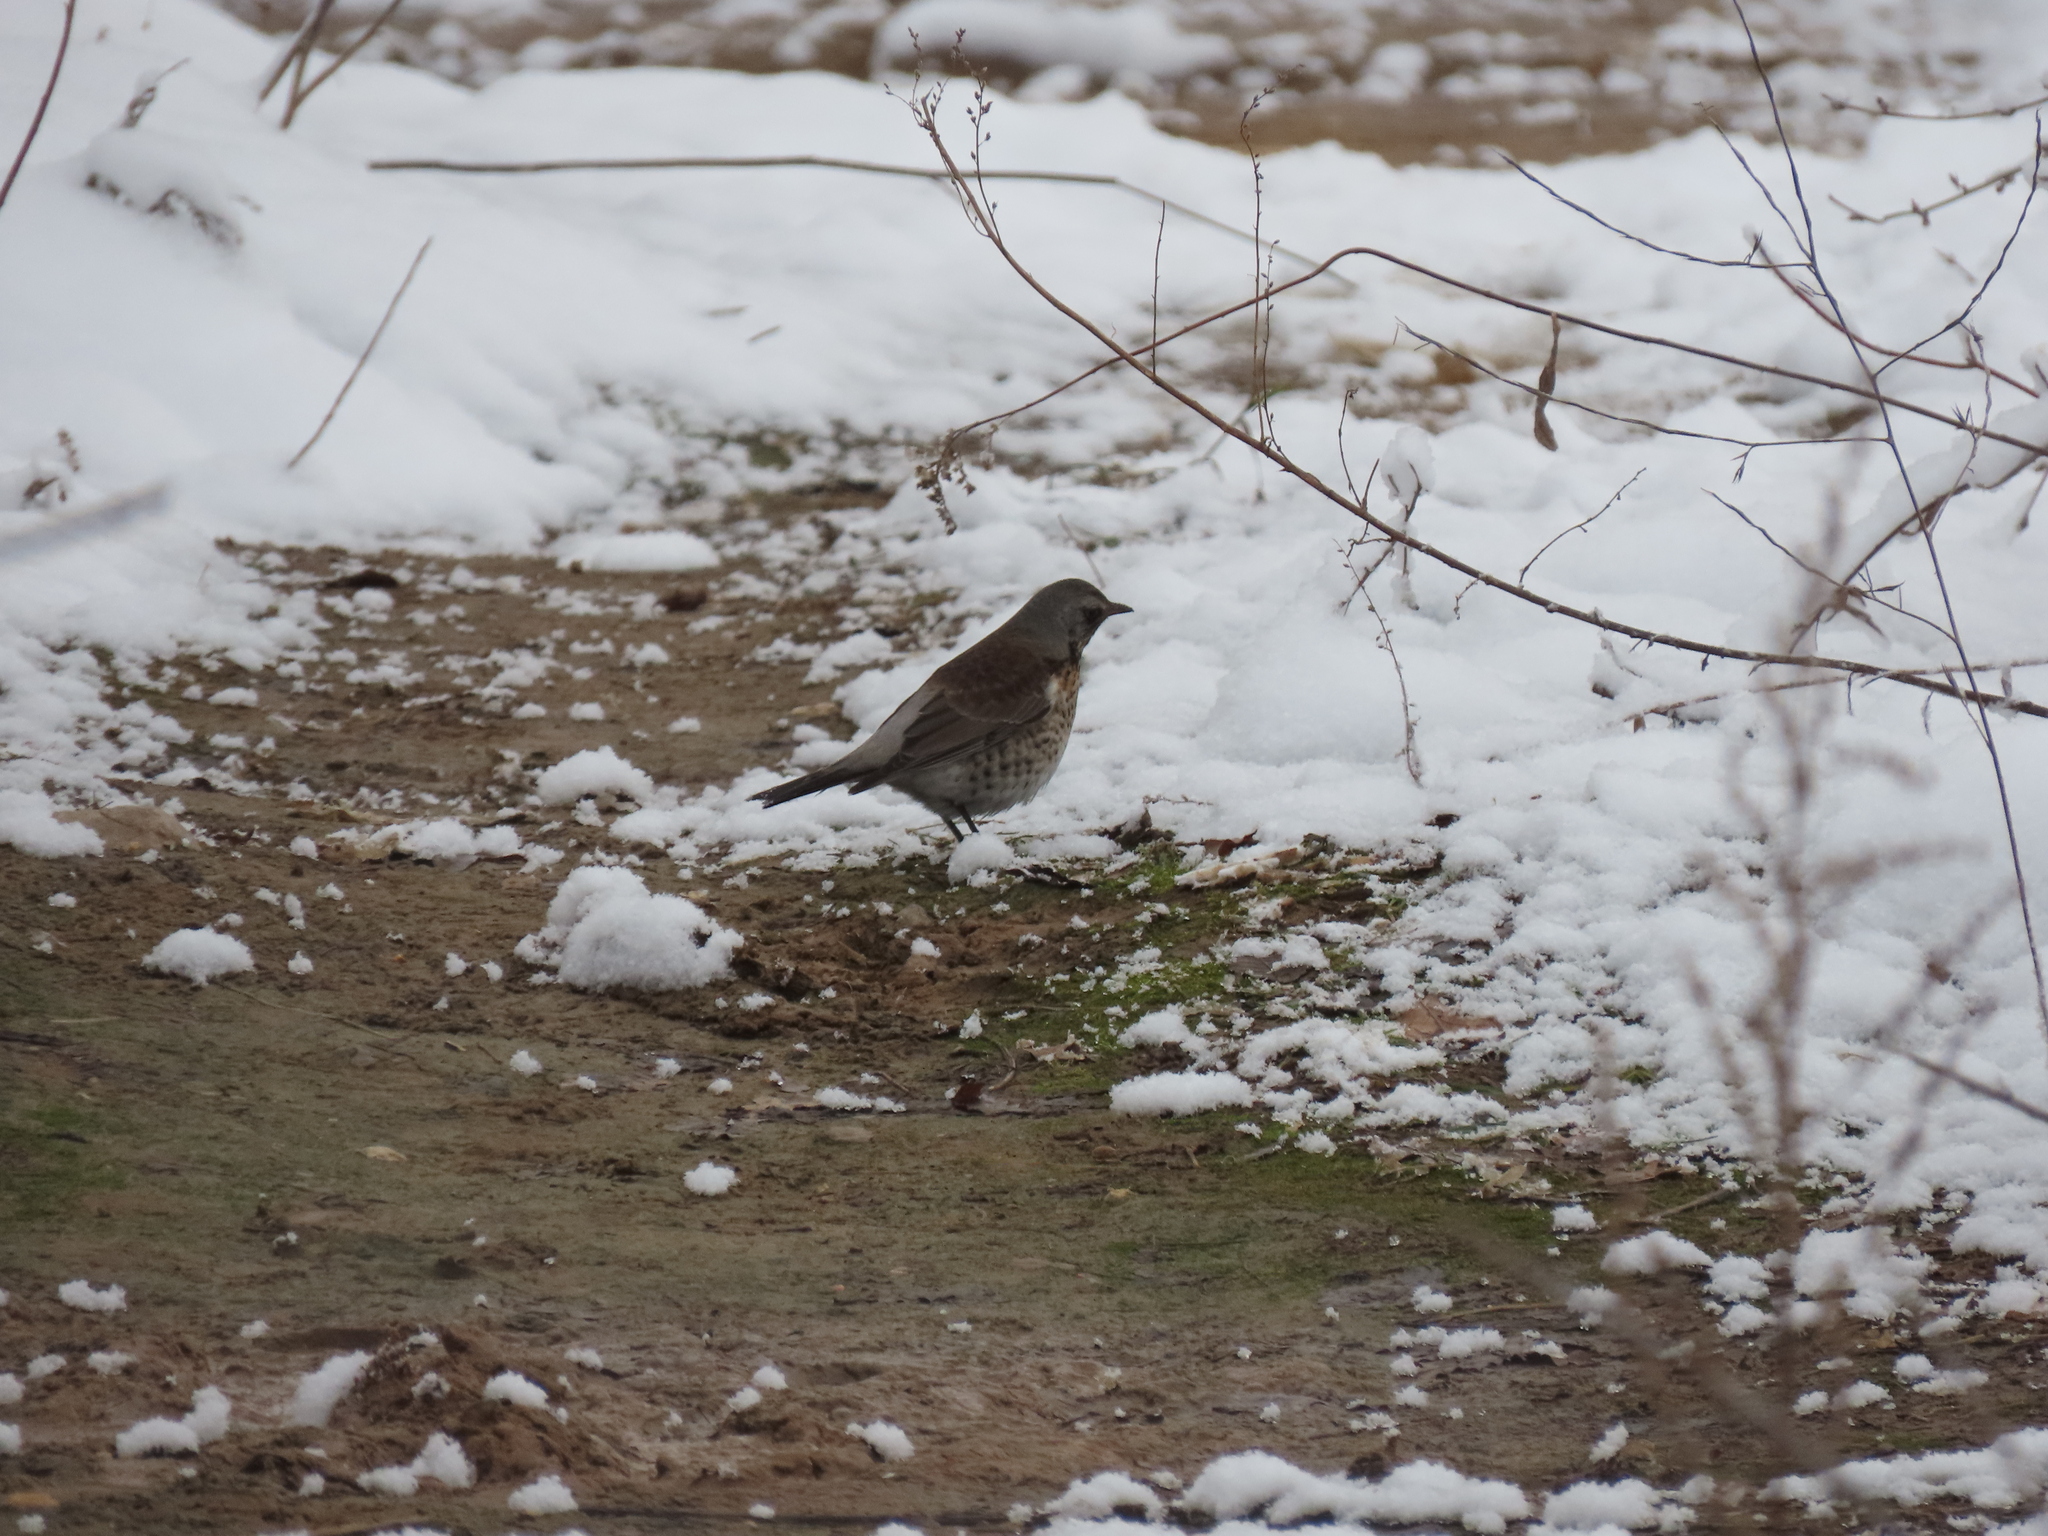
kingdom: Animalia
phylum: Chordata
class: Aves
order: Passeriformes
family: Turdidae
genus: Turdus
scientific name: Turdus pilaris
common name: Fieldfare
